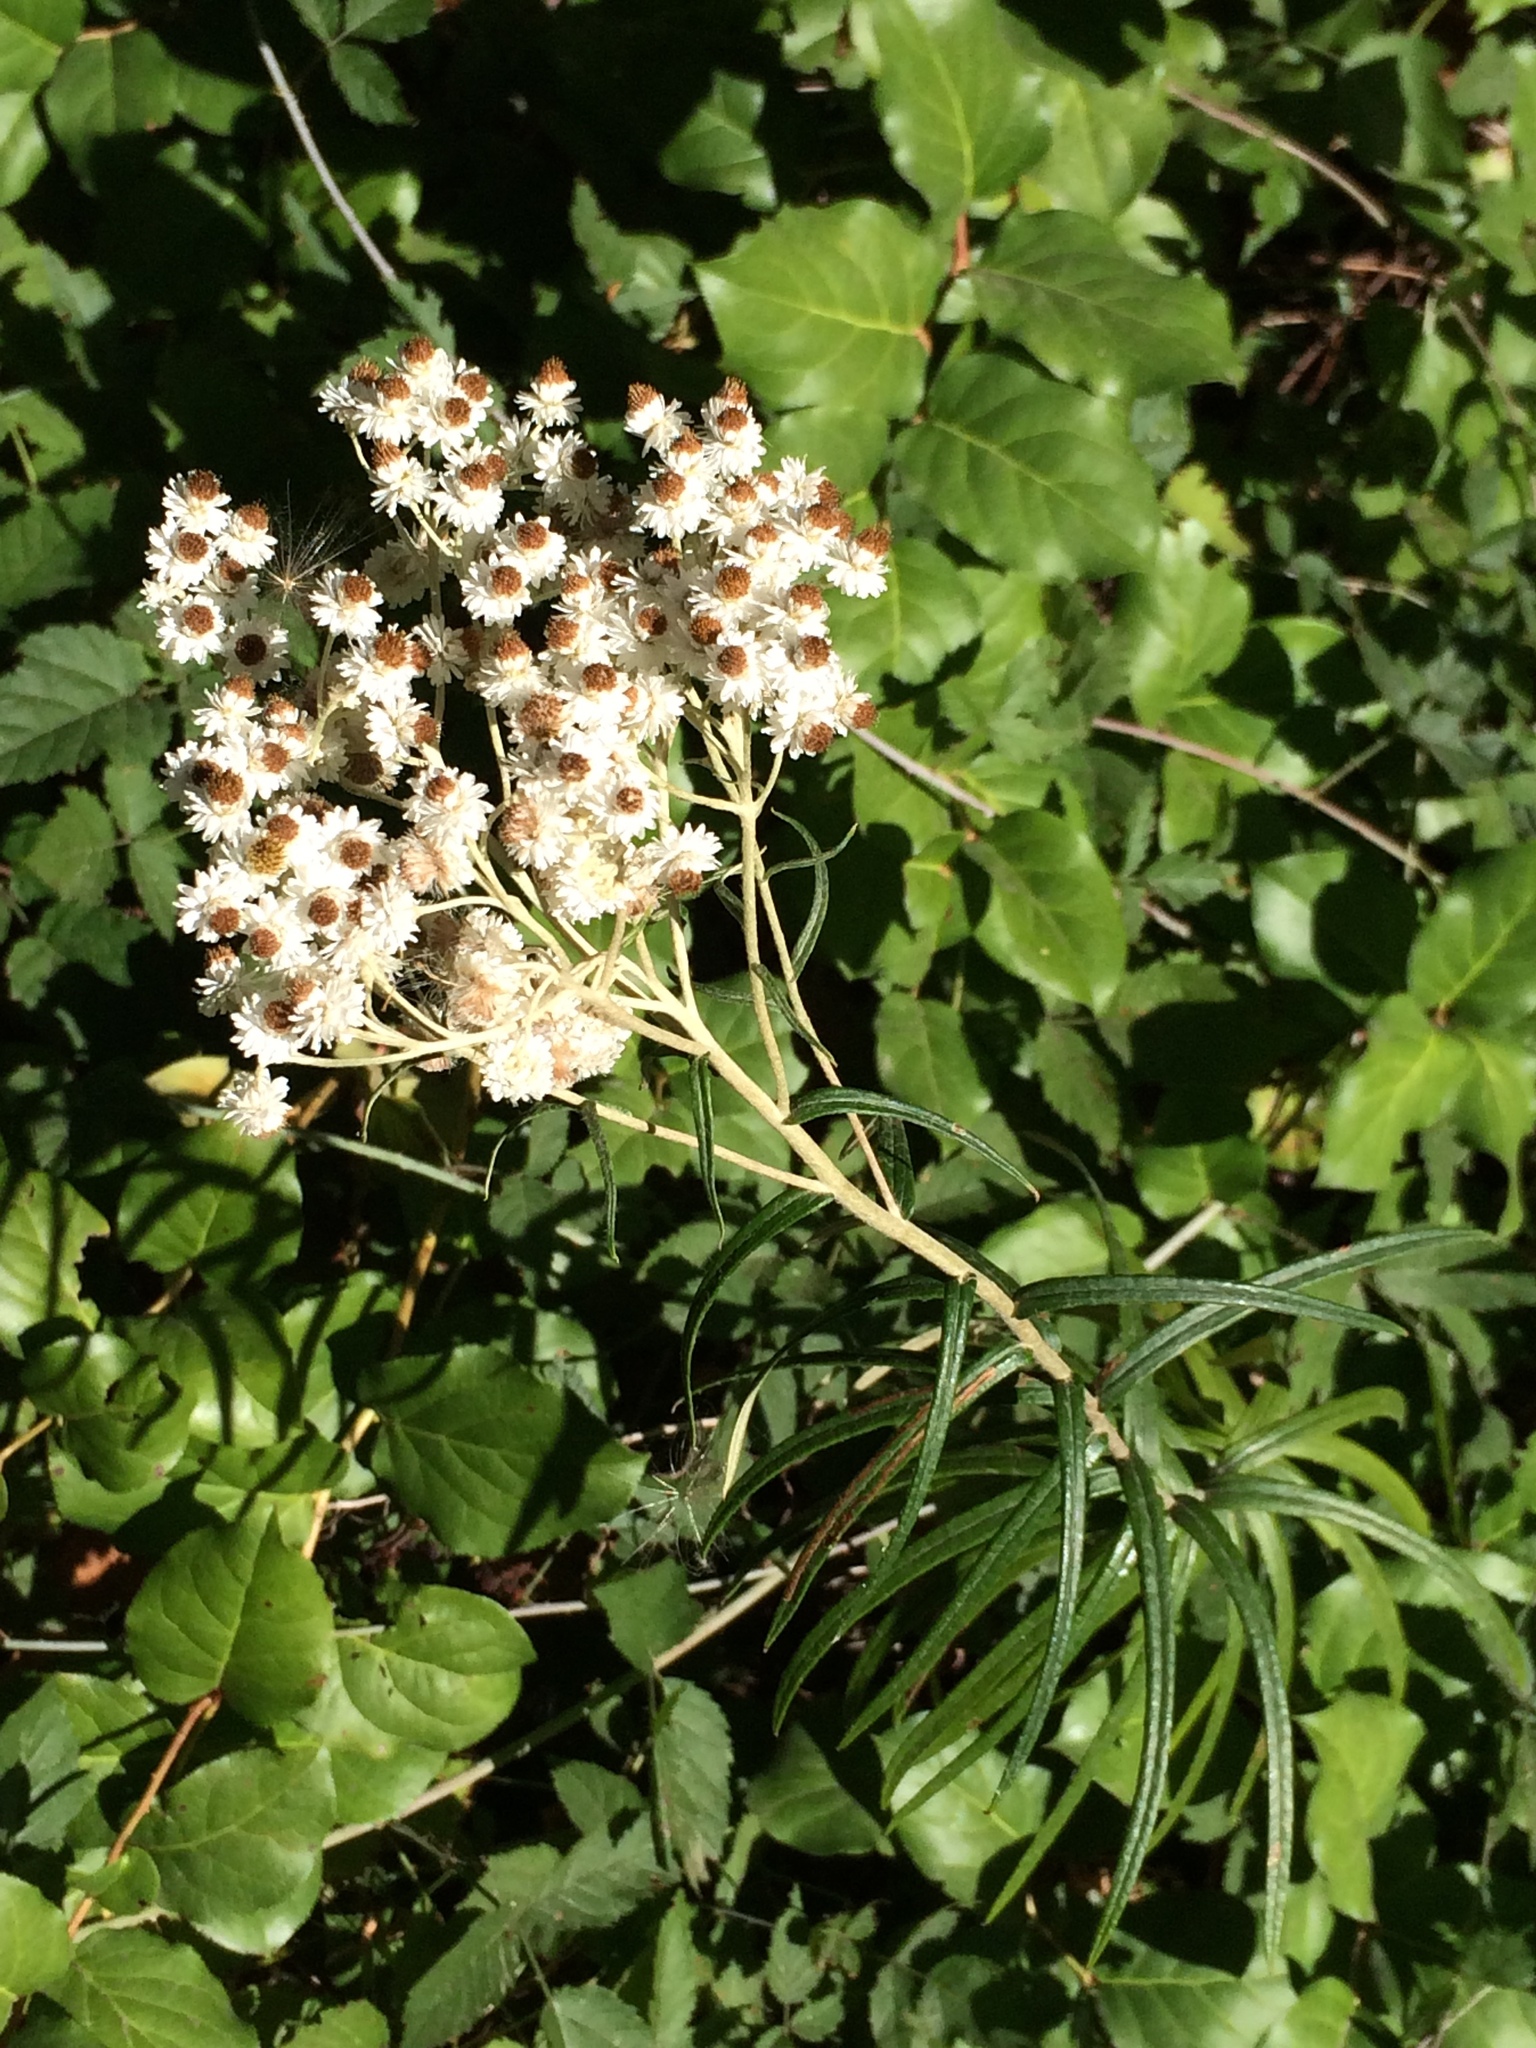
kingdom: Plantae
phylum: Tracheophyta
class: Magnoliopsida
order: Asterales
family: Asteraceae
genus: Anaphalis
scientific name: Anaphalis margaritacea
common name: Pearly everlasting
